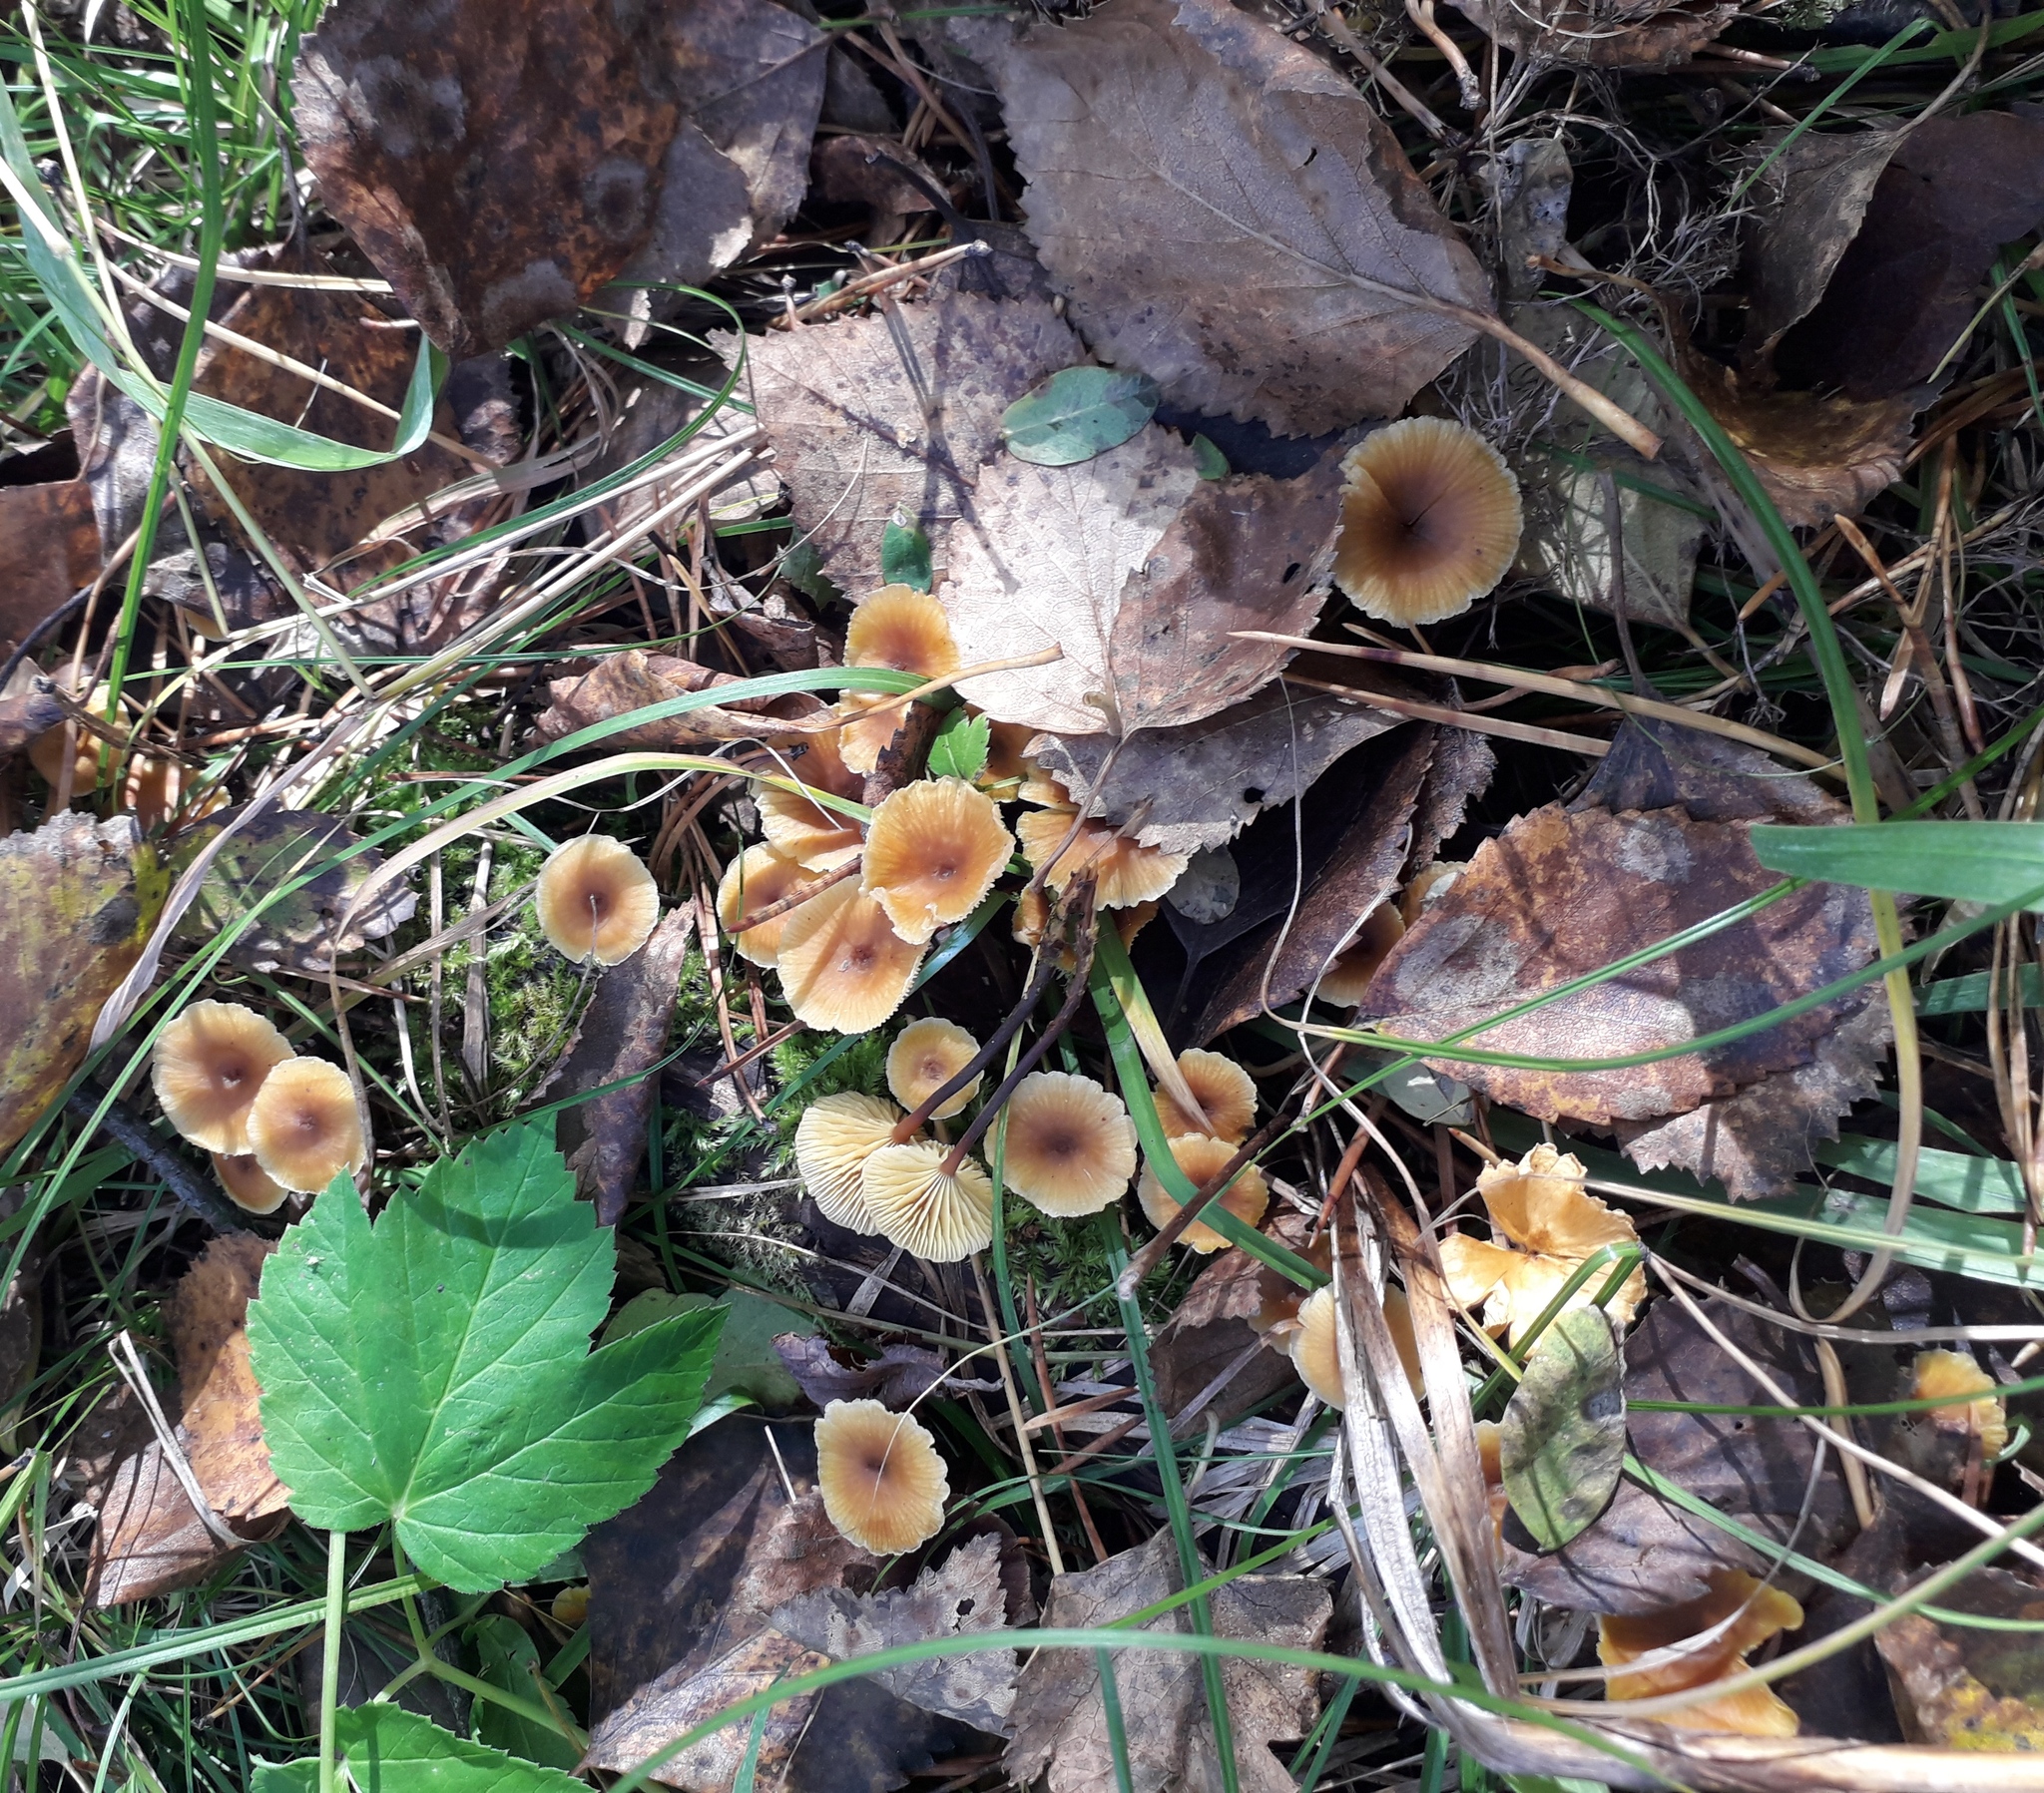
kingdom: Fungi
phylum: Basidiomycota
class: Agaricomycetes
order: Agaricales
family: Mycenaceae
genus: Xeromphalina
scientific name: Xeromphalina cauticinalis
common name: Pinelitter gingertail
